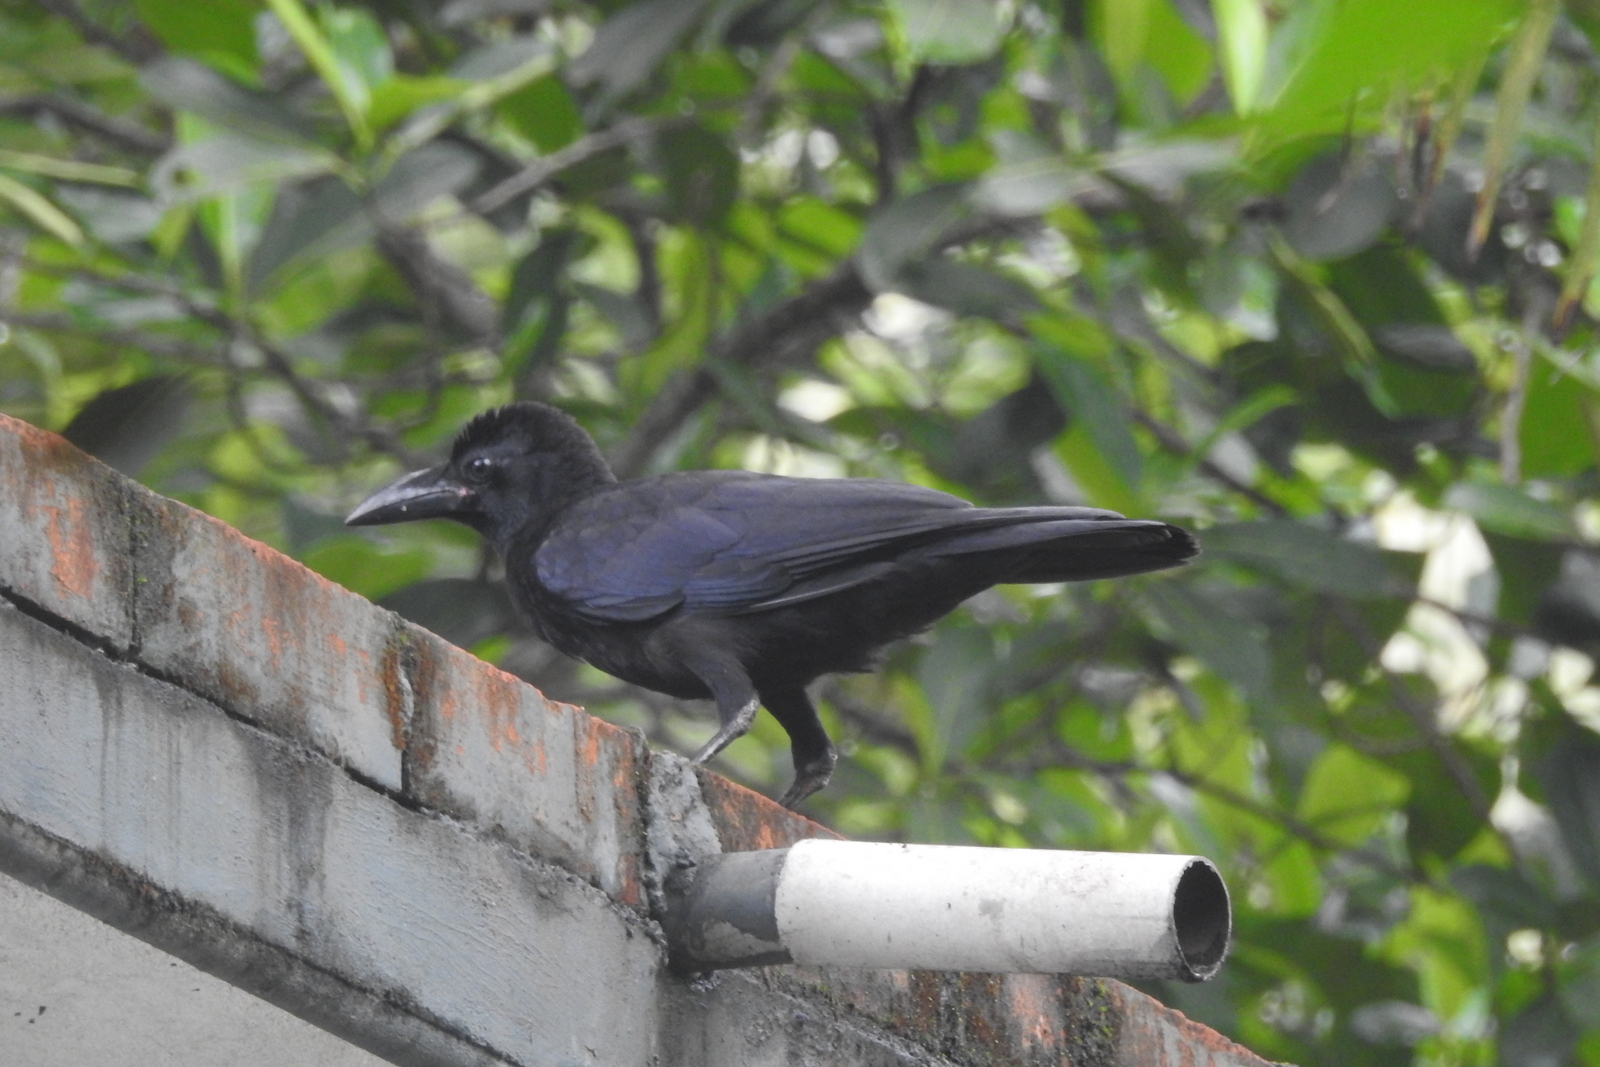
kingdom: Animalia
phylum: Chordata
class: Aves
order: Passeriformes
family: Corvidae
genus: Corvus
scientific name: Corvus macrorhynchos
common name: Large-billed crow
